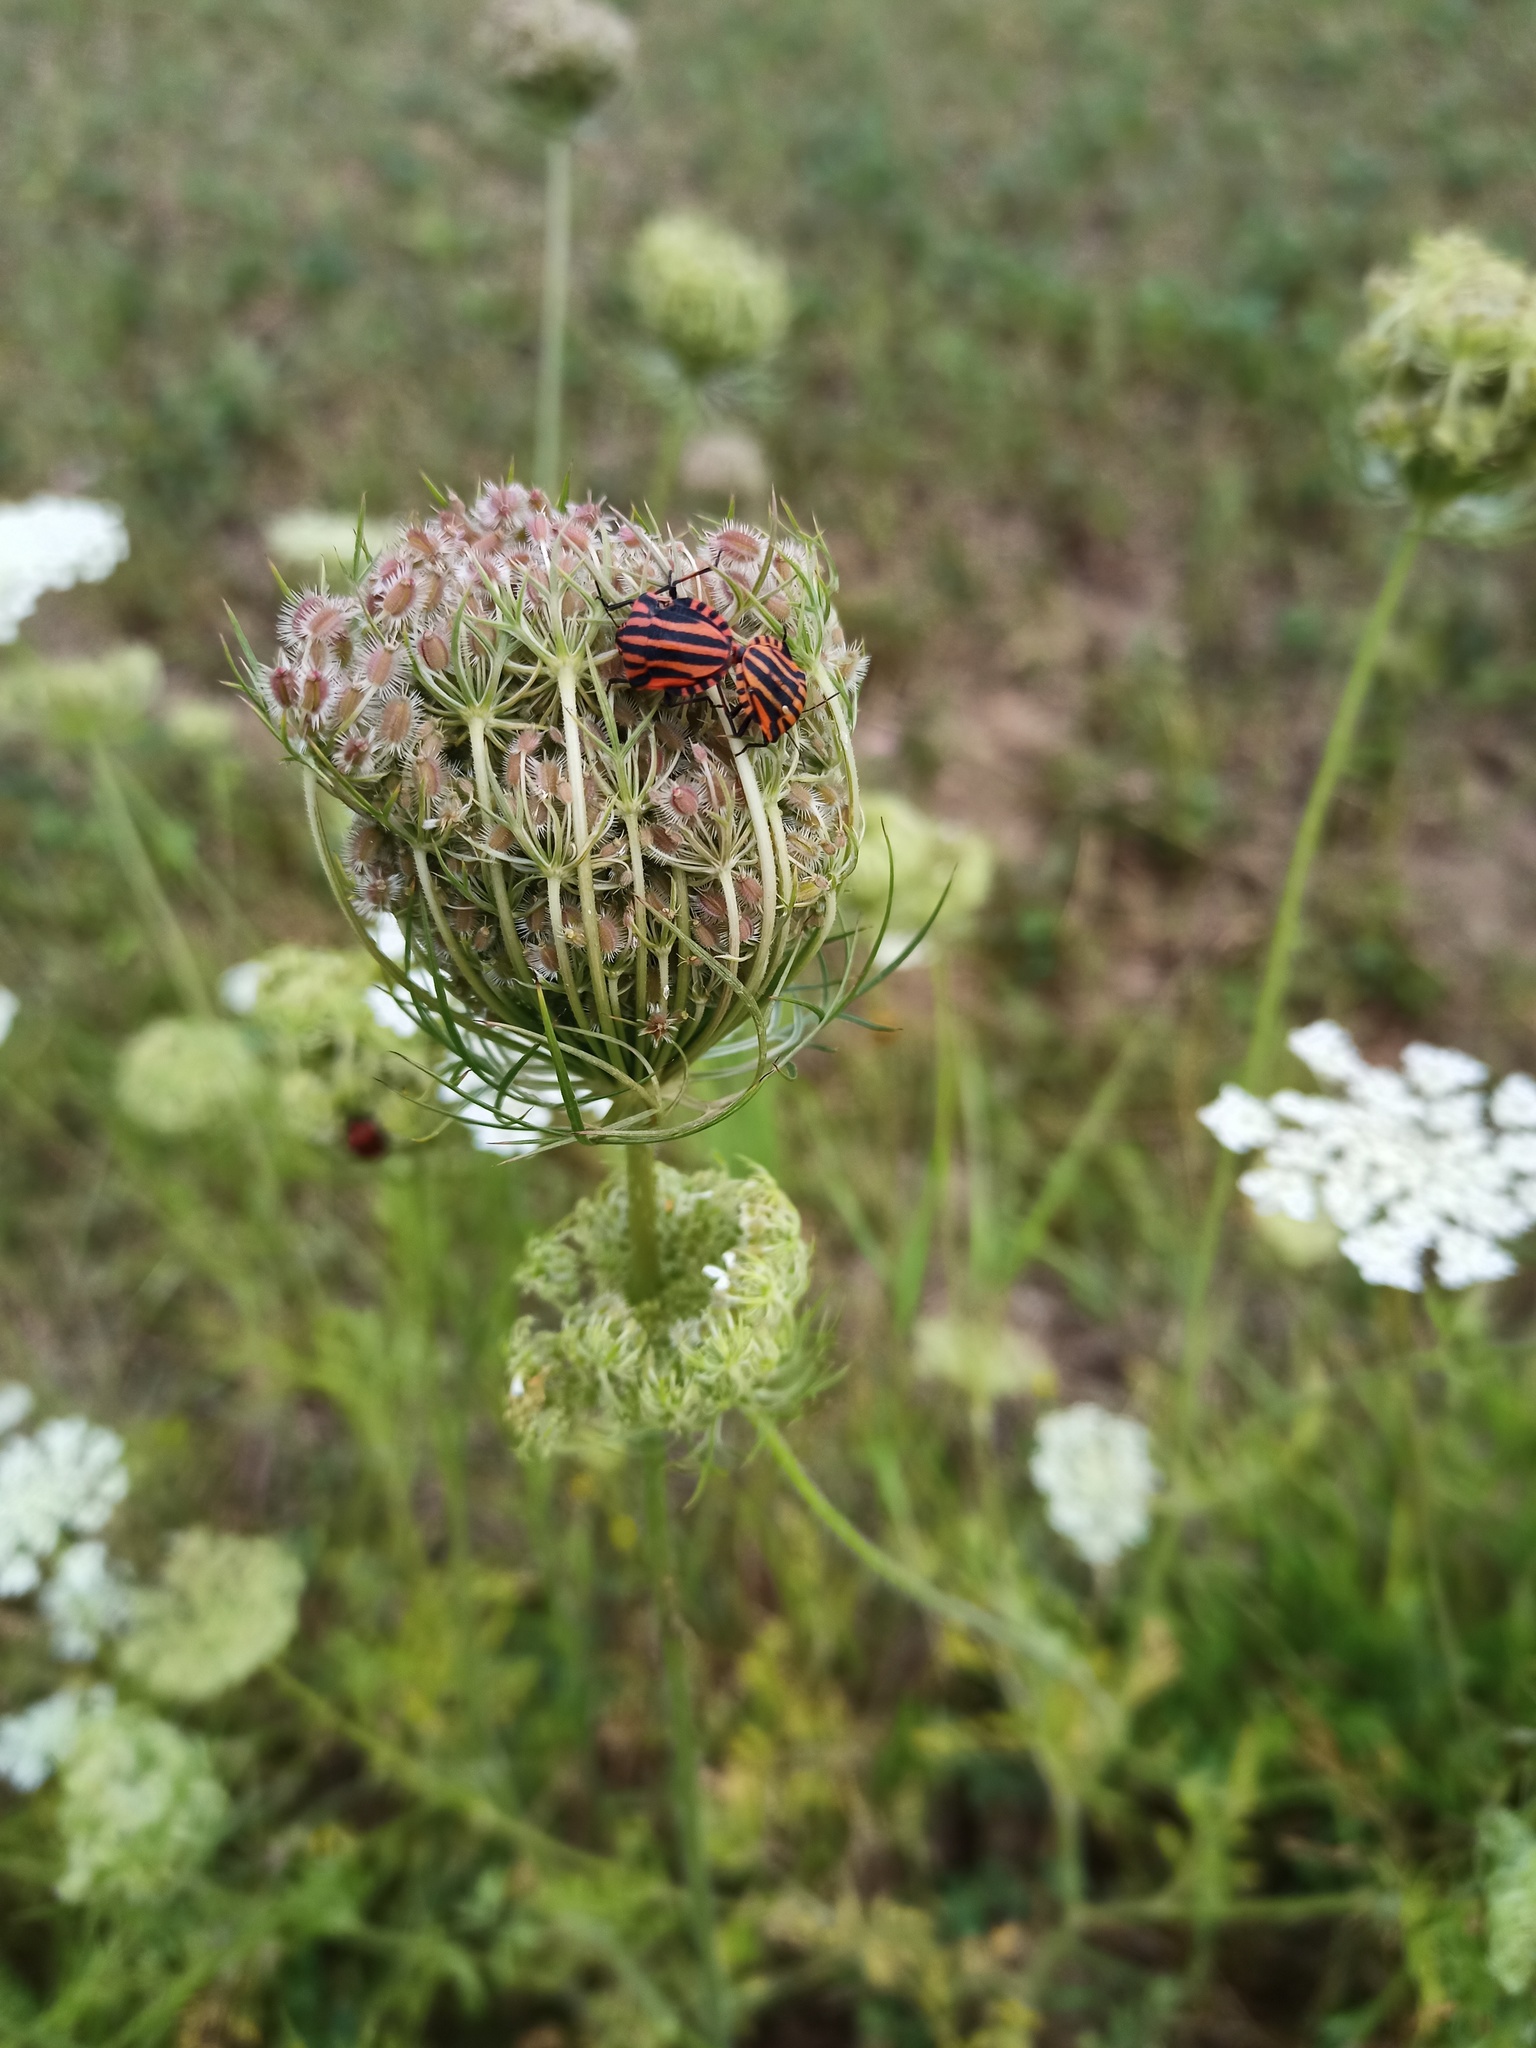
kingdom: Animalia
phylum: Arthropoda
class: Insecta
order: Hemiptera
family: Pentatomidae
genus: Graphosoma
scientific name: Graphosoma italicum
